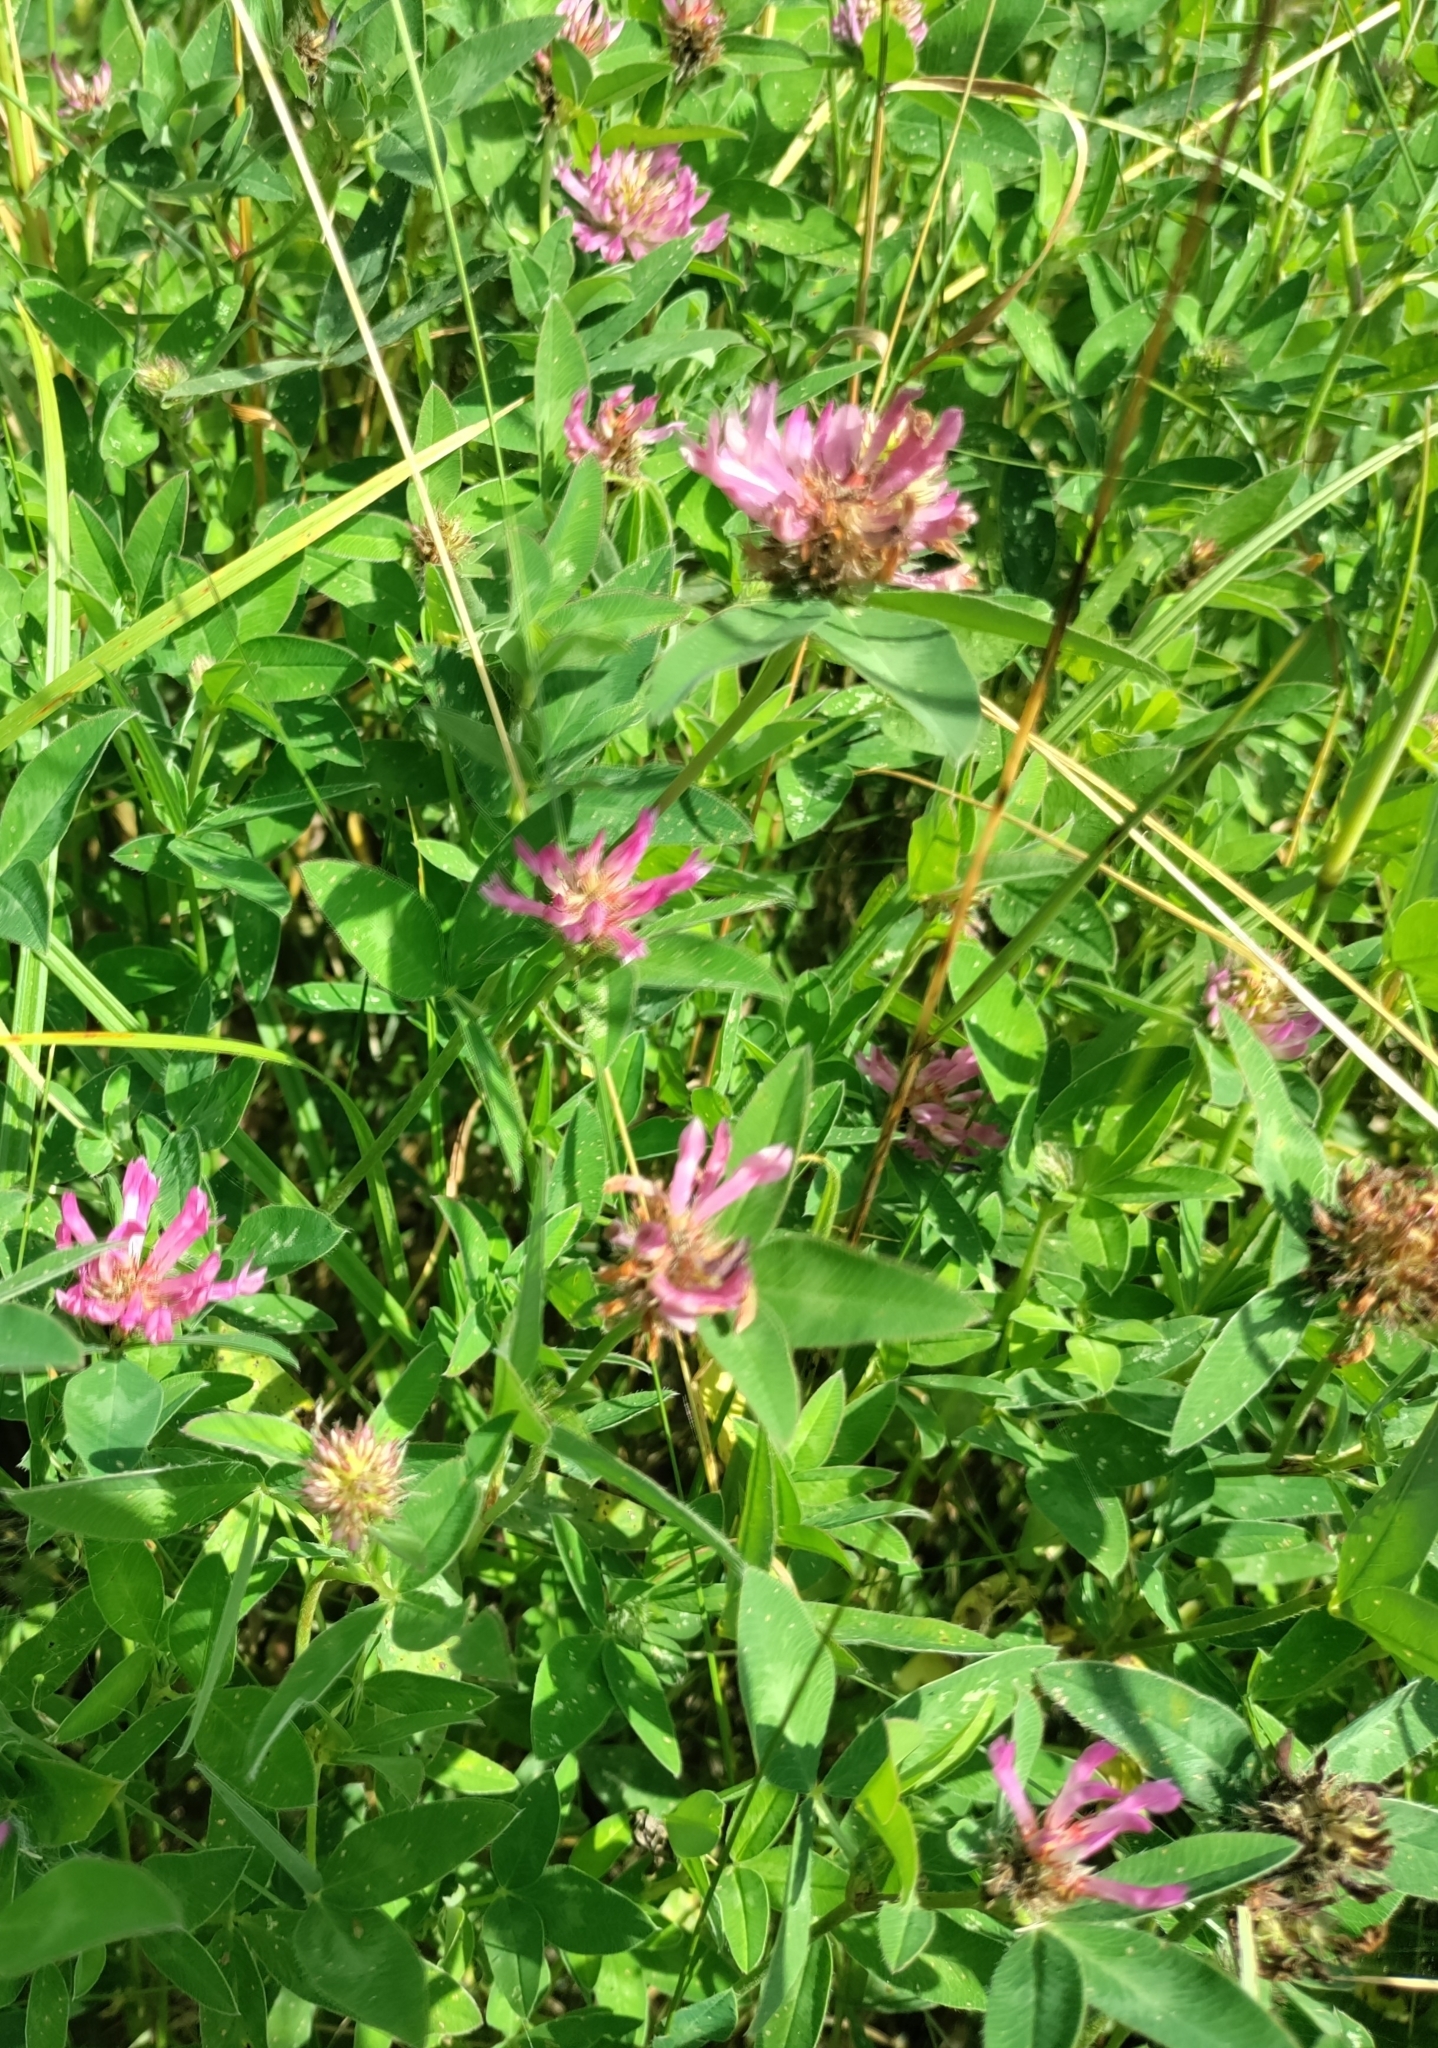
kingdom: Plantae
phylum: Tracheophyta
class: Magnoliopsida
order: Fabales
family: Fabaceae
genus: Trifolium
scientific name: Trifolium medium
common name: Zigzag clover
